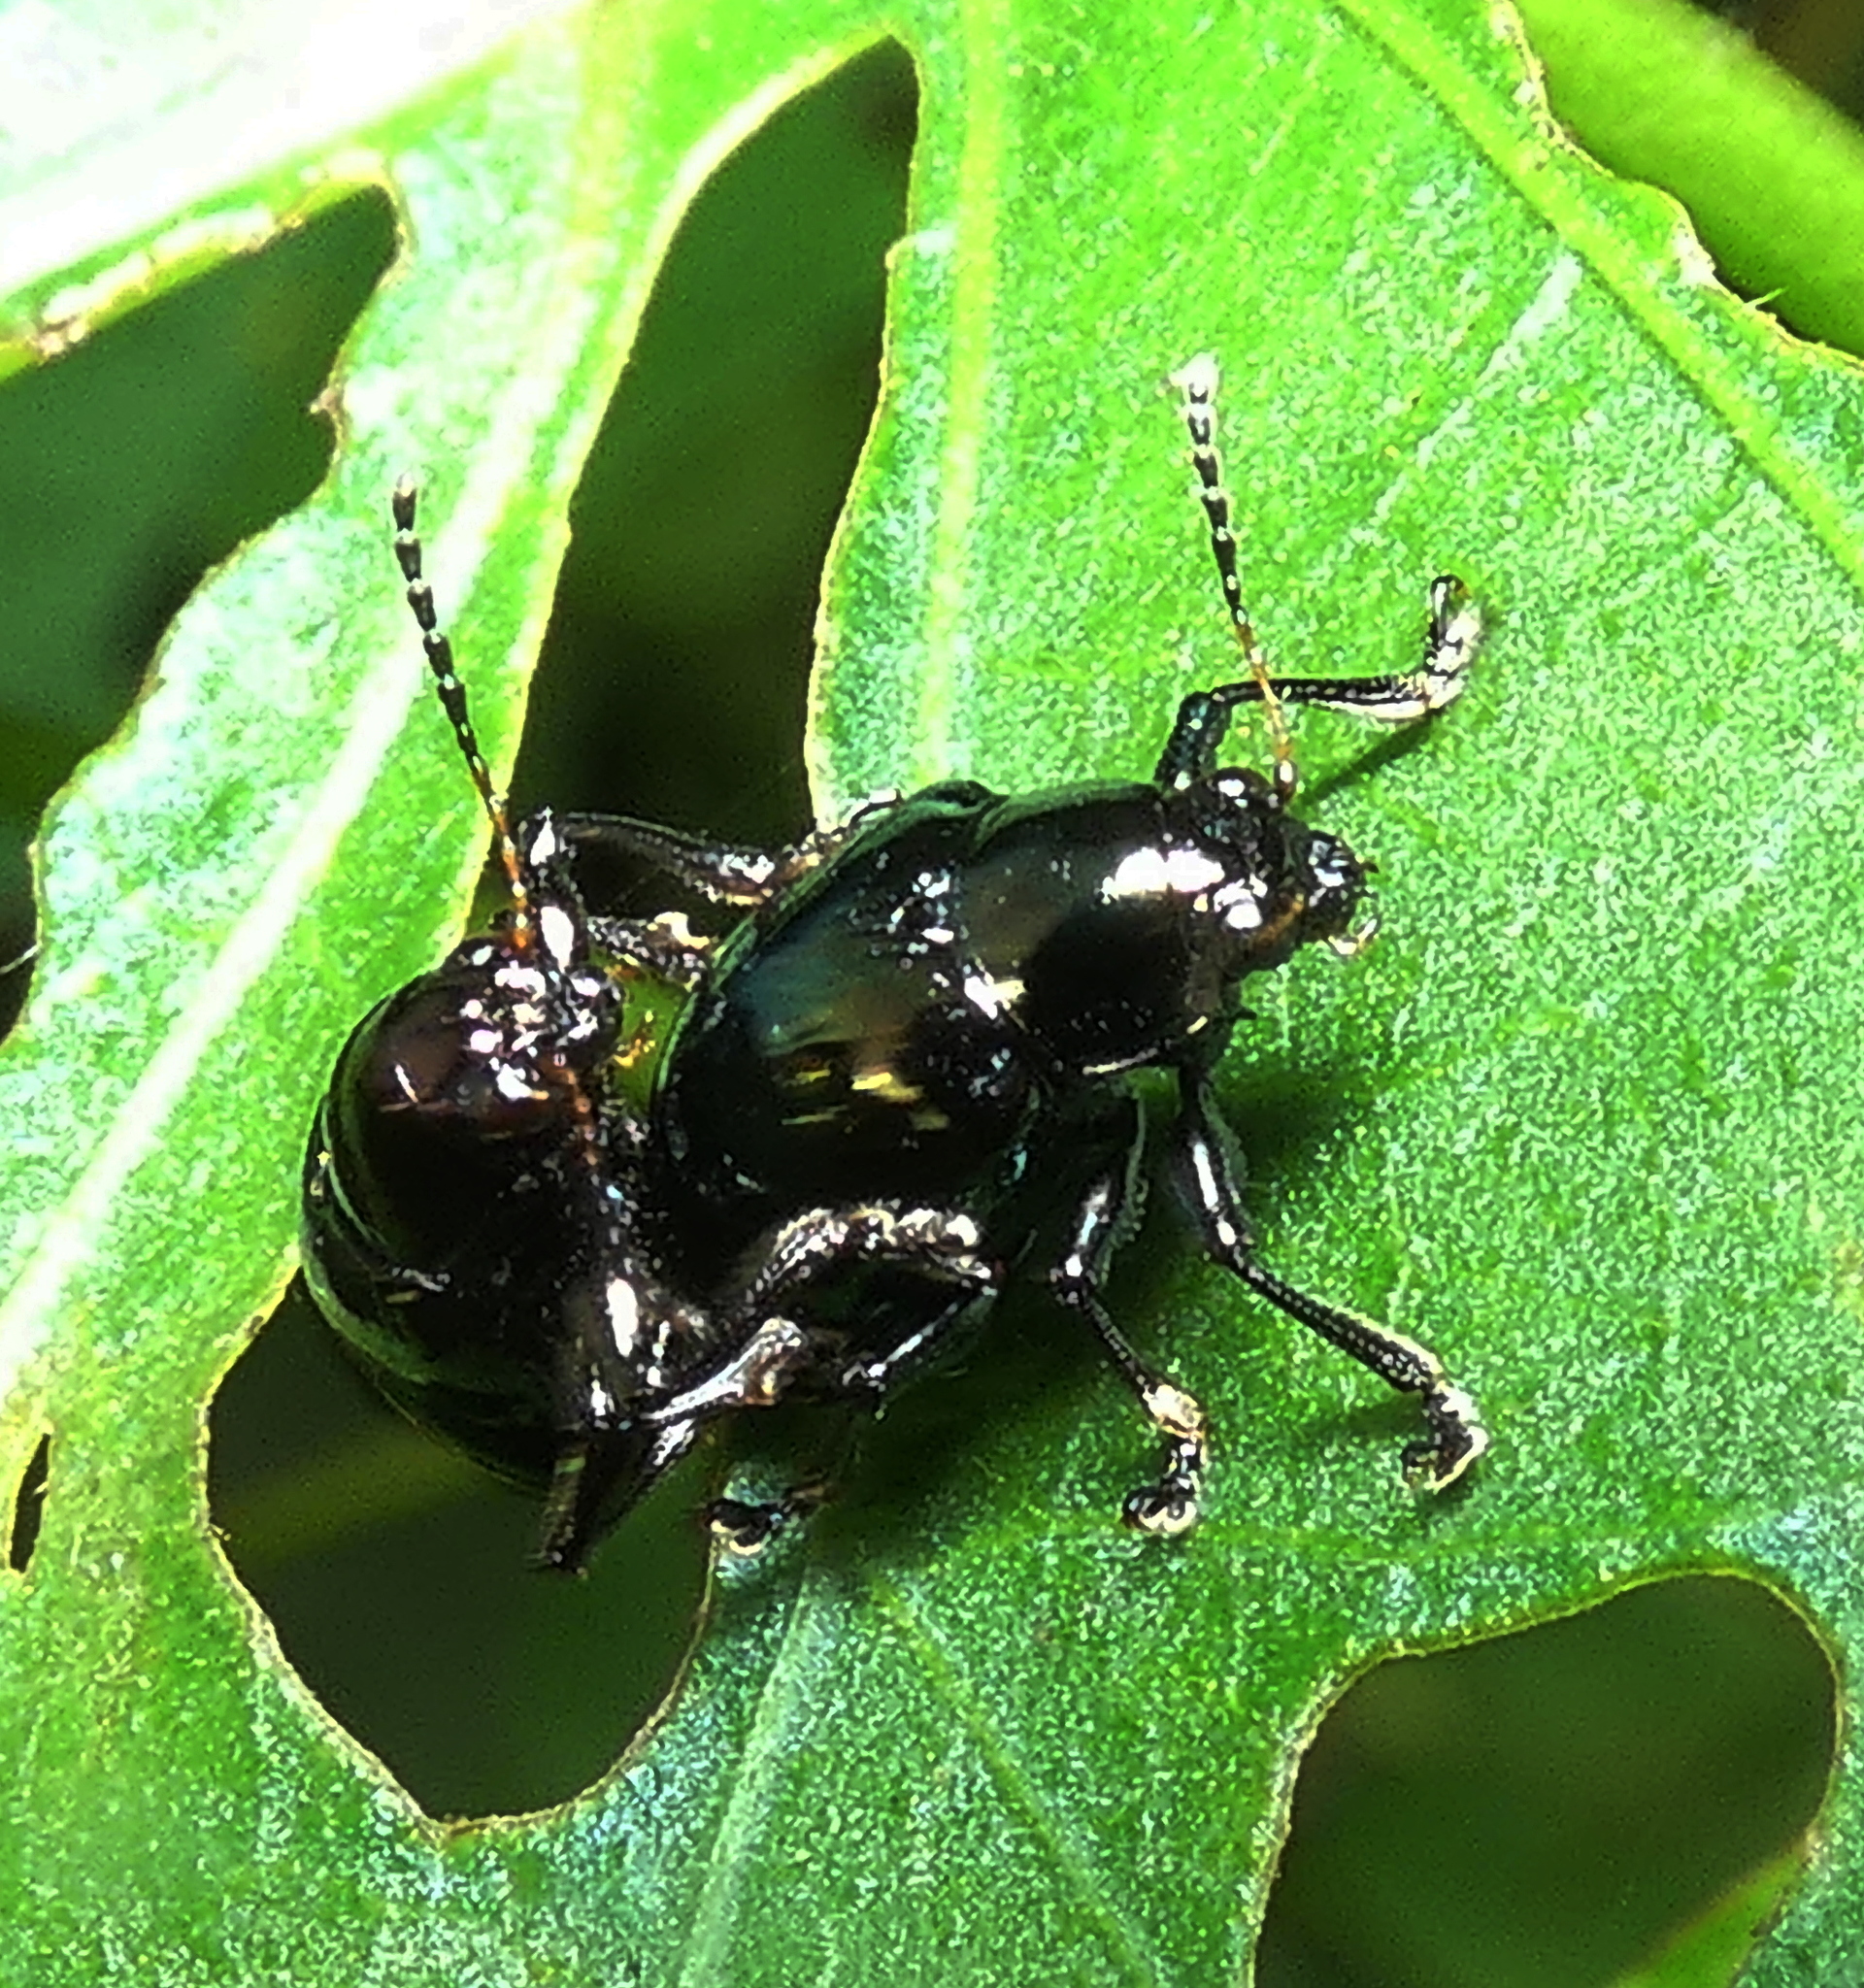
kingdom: Animalia
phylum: Arthropoda
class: Insecta
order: Coleoptera
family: Chrysomelidae
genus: Typophorus
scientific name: Typophorus nigritus
